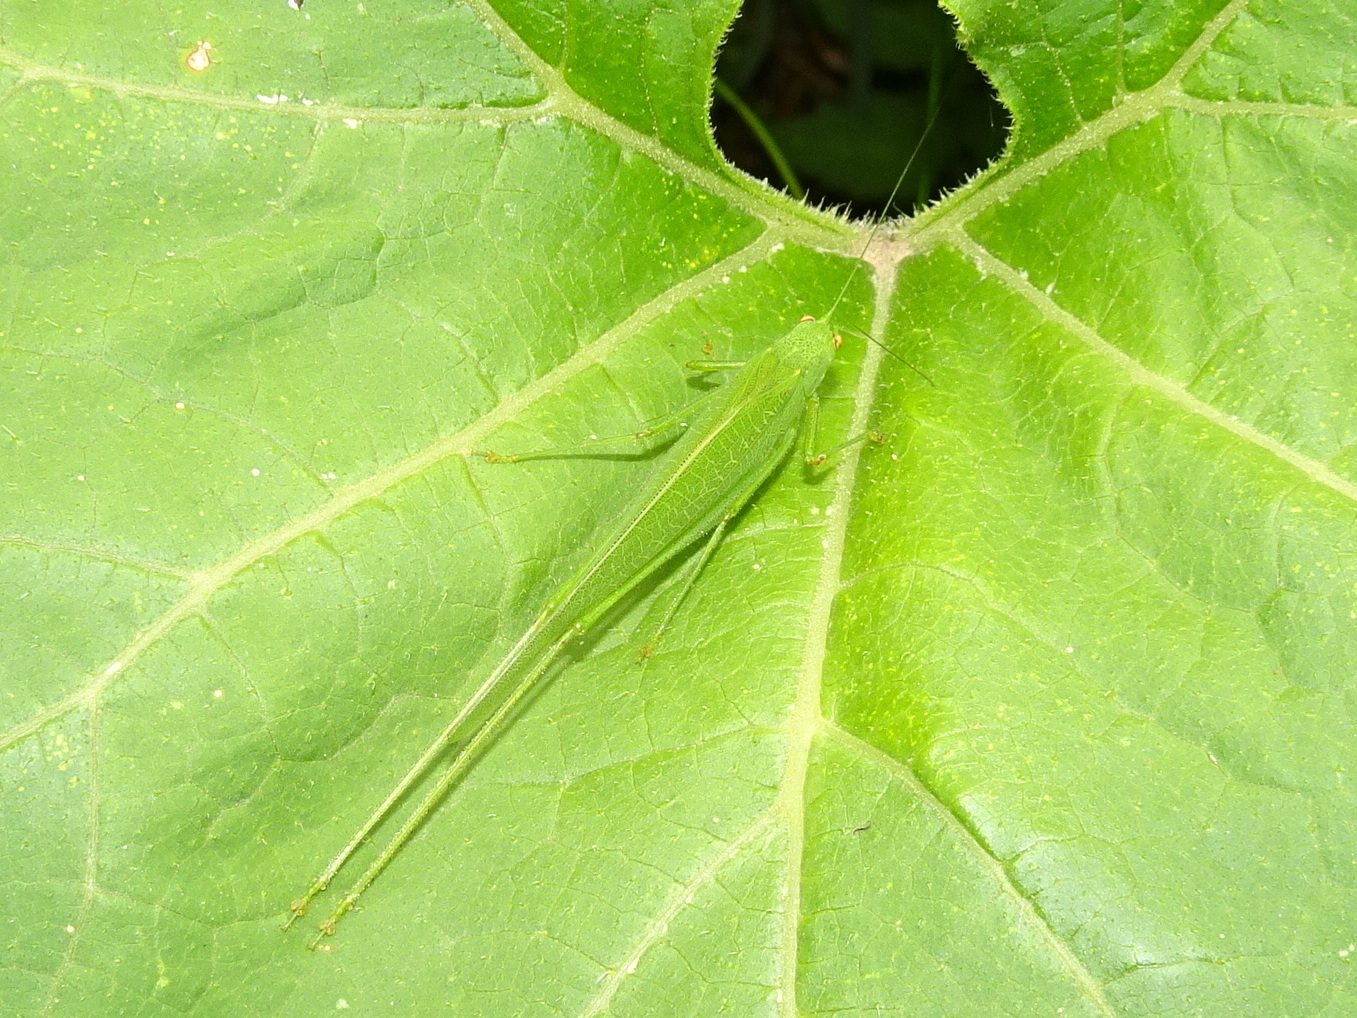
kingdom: Animalia
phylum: Arthropoda
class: Insecta
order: Orthoptera
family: Tettigoniidae
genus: Phaneroptera
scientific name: Phaneroptera nana
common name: Southern sickle bush-cricket
